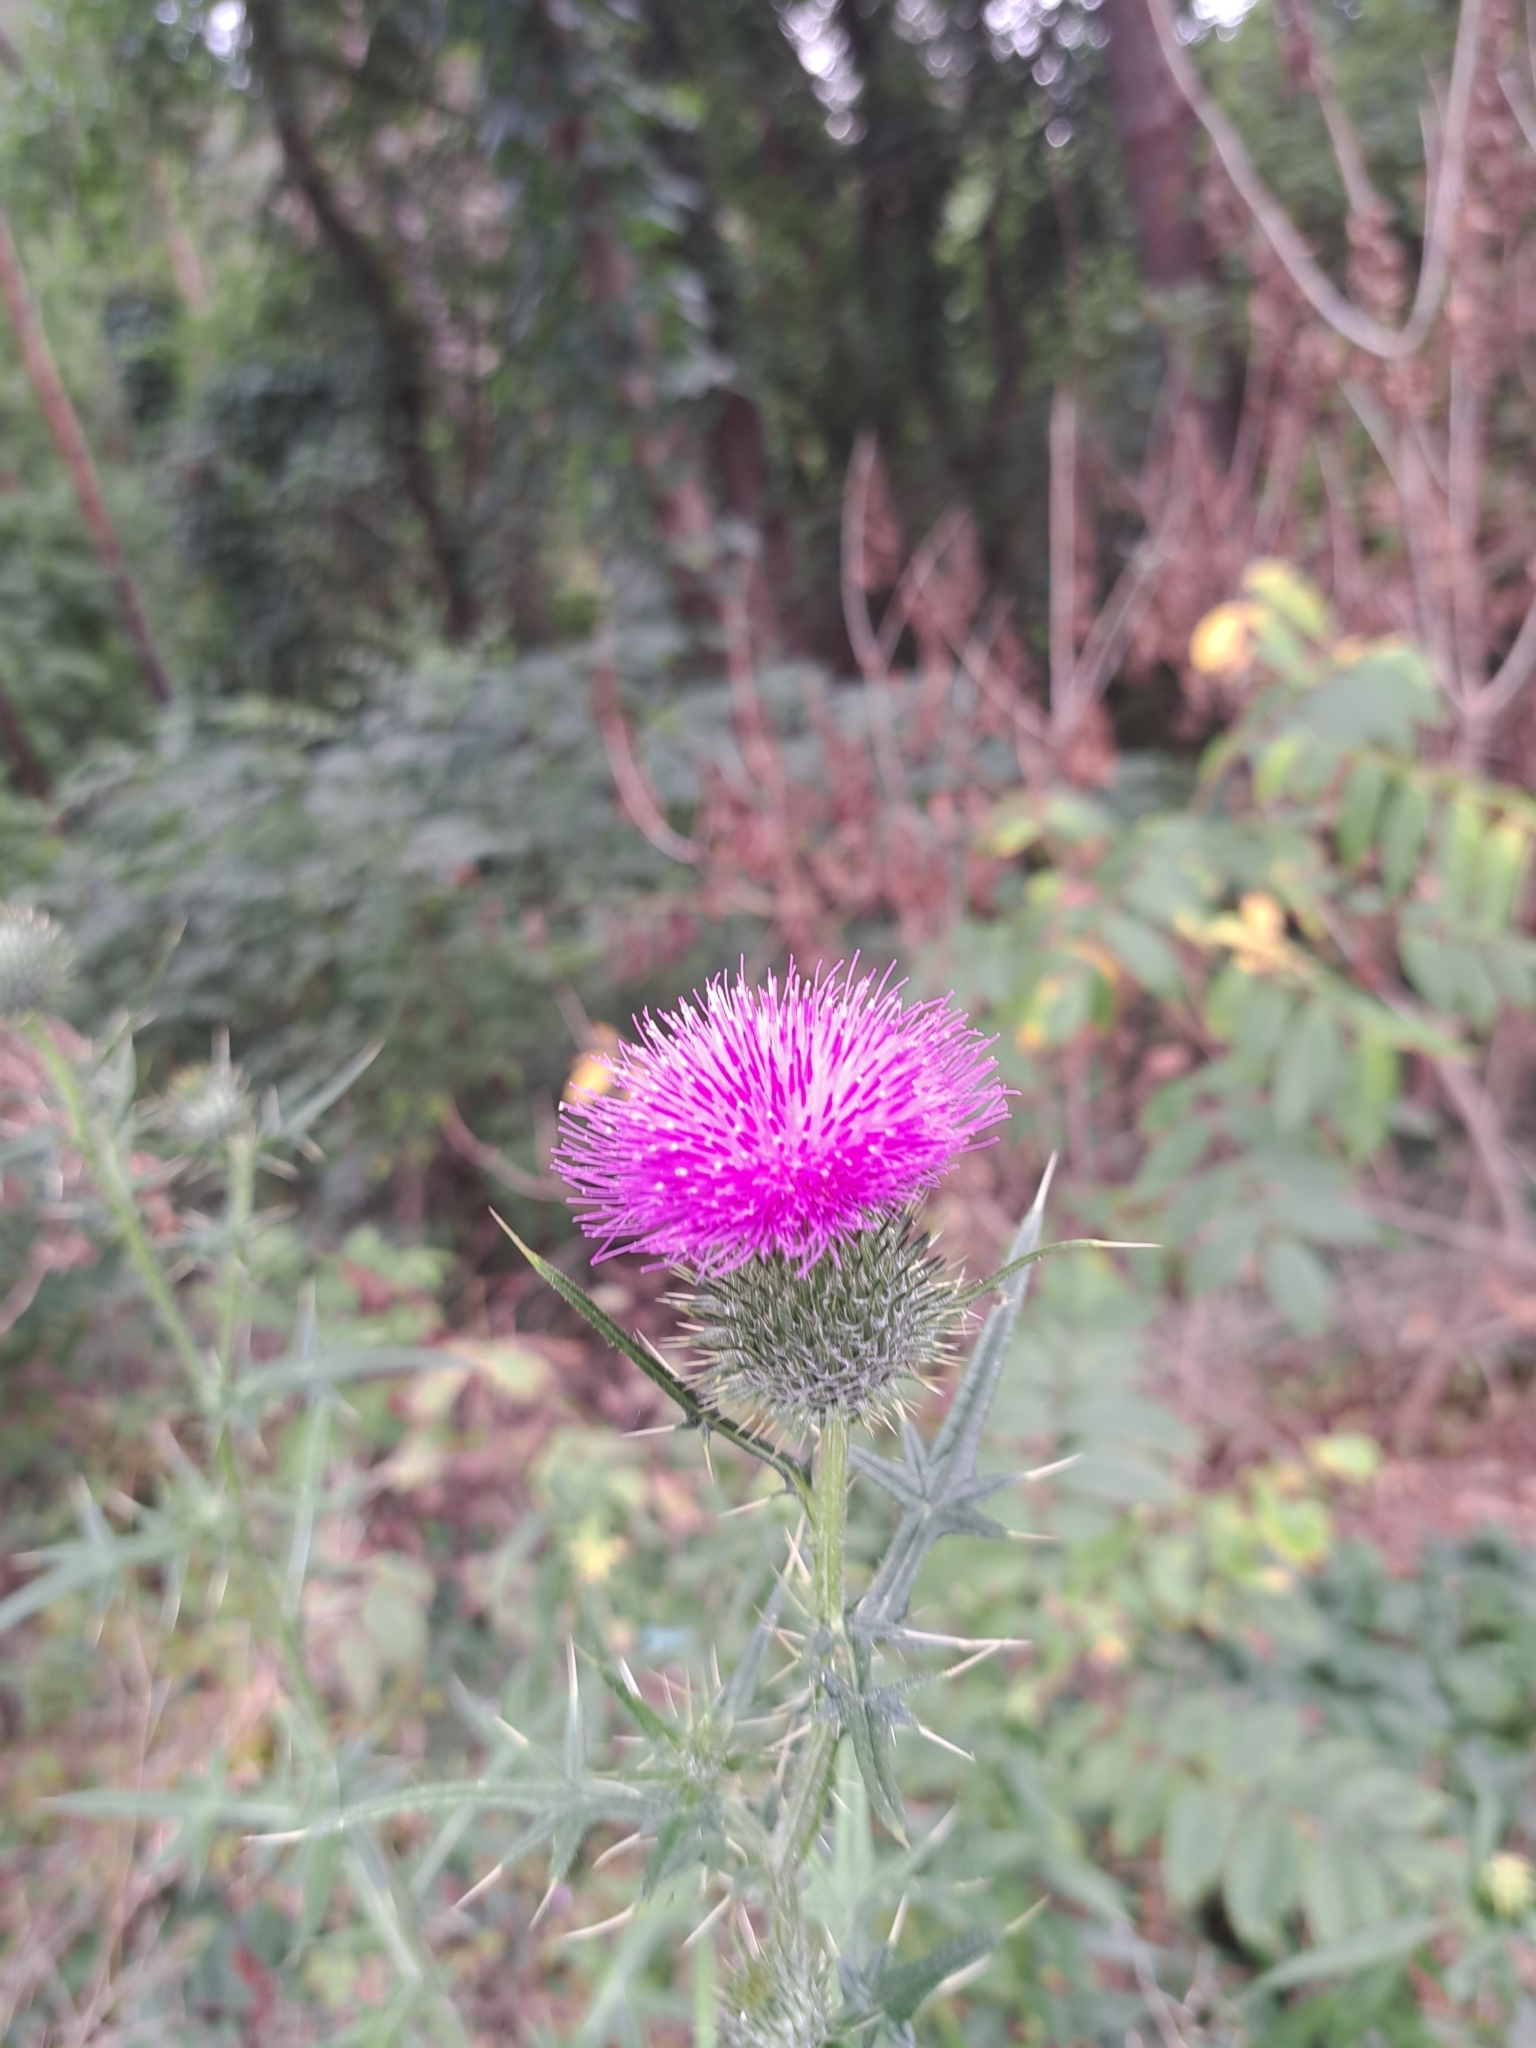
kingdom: Plantae
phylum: Tracheophyta
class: Magnoliopsida
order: Asterales
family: Asteraceae
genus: Cirsium
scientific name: Cirsium vulgare
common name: Bull thistle
